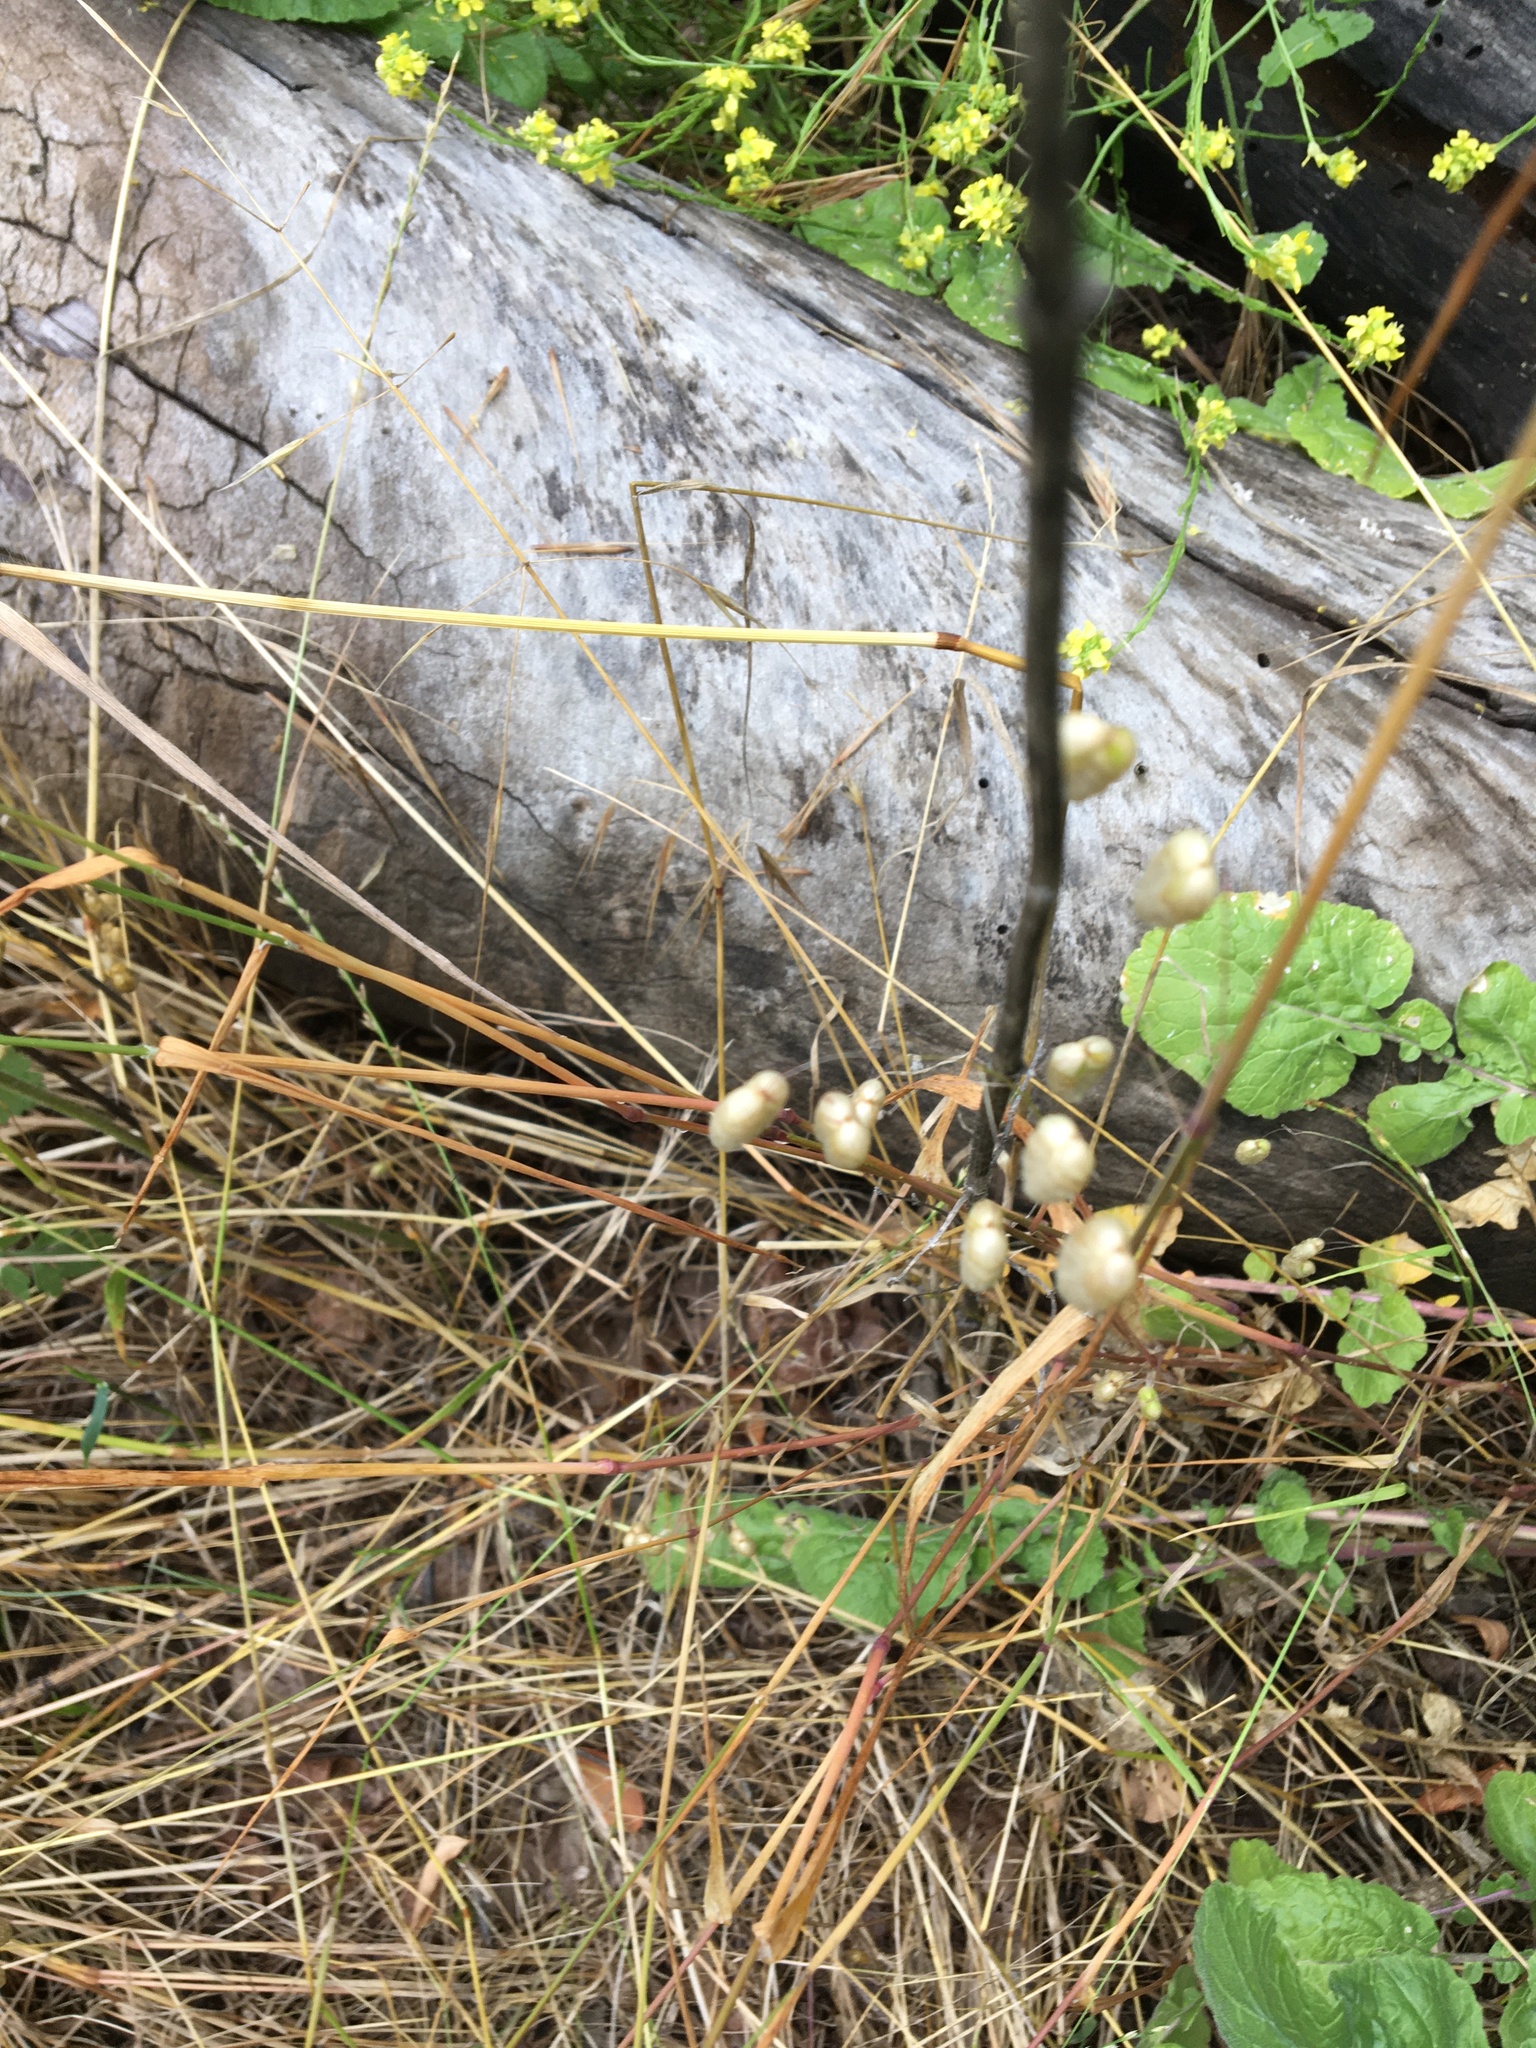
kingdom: Plantae
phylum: Tracheophyta
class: Liliopsida
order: Poales
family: Poaceae
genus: Briza
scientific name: Briza maxima
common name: Big quakinggrass
